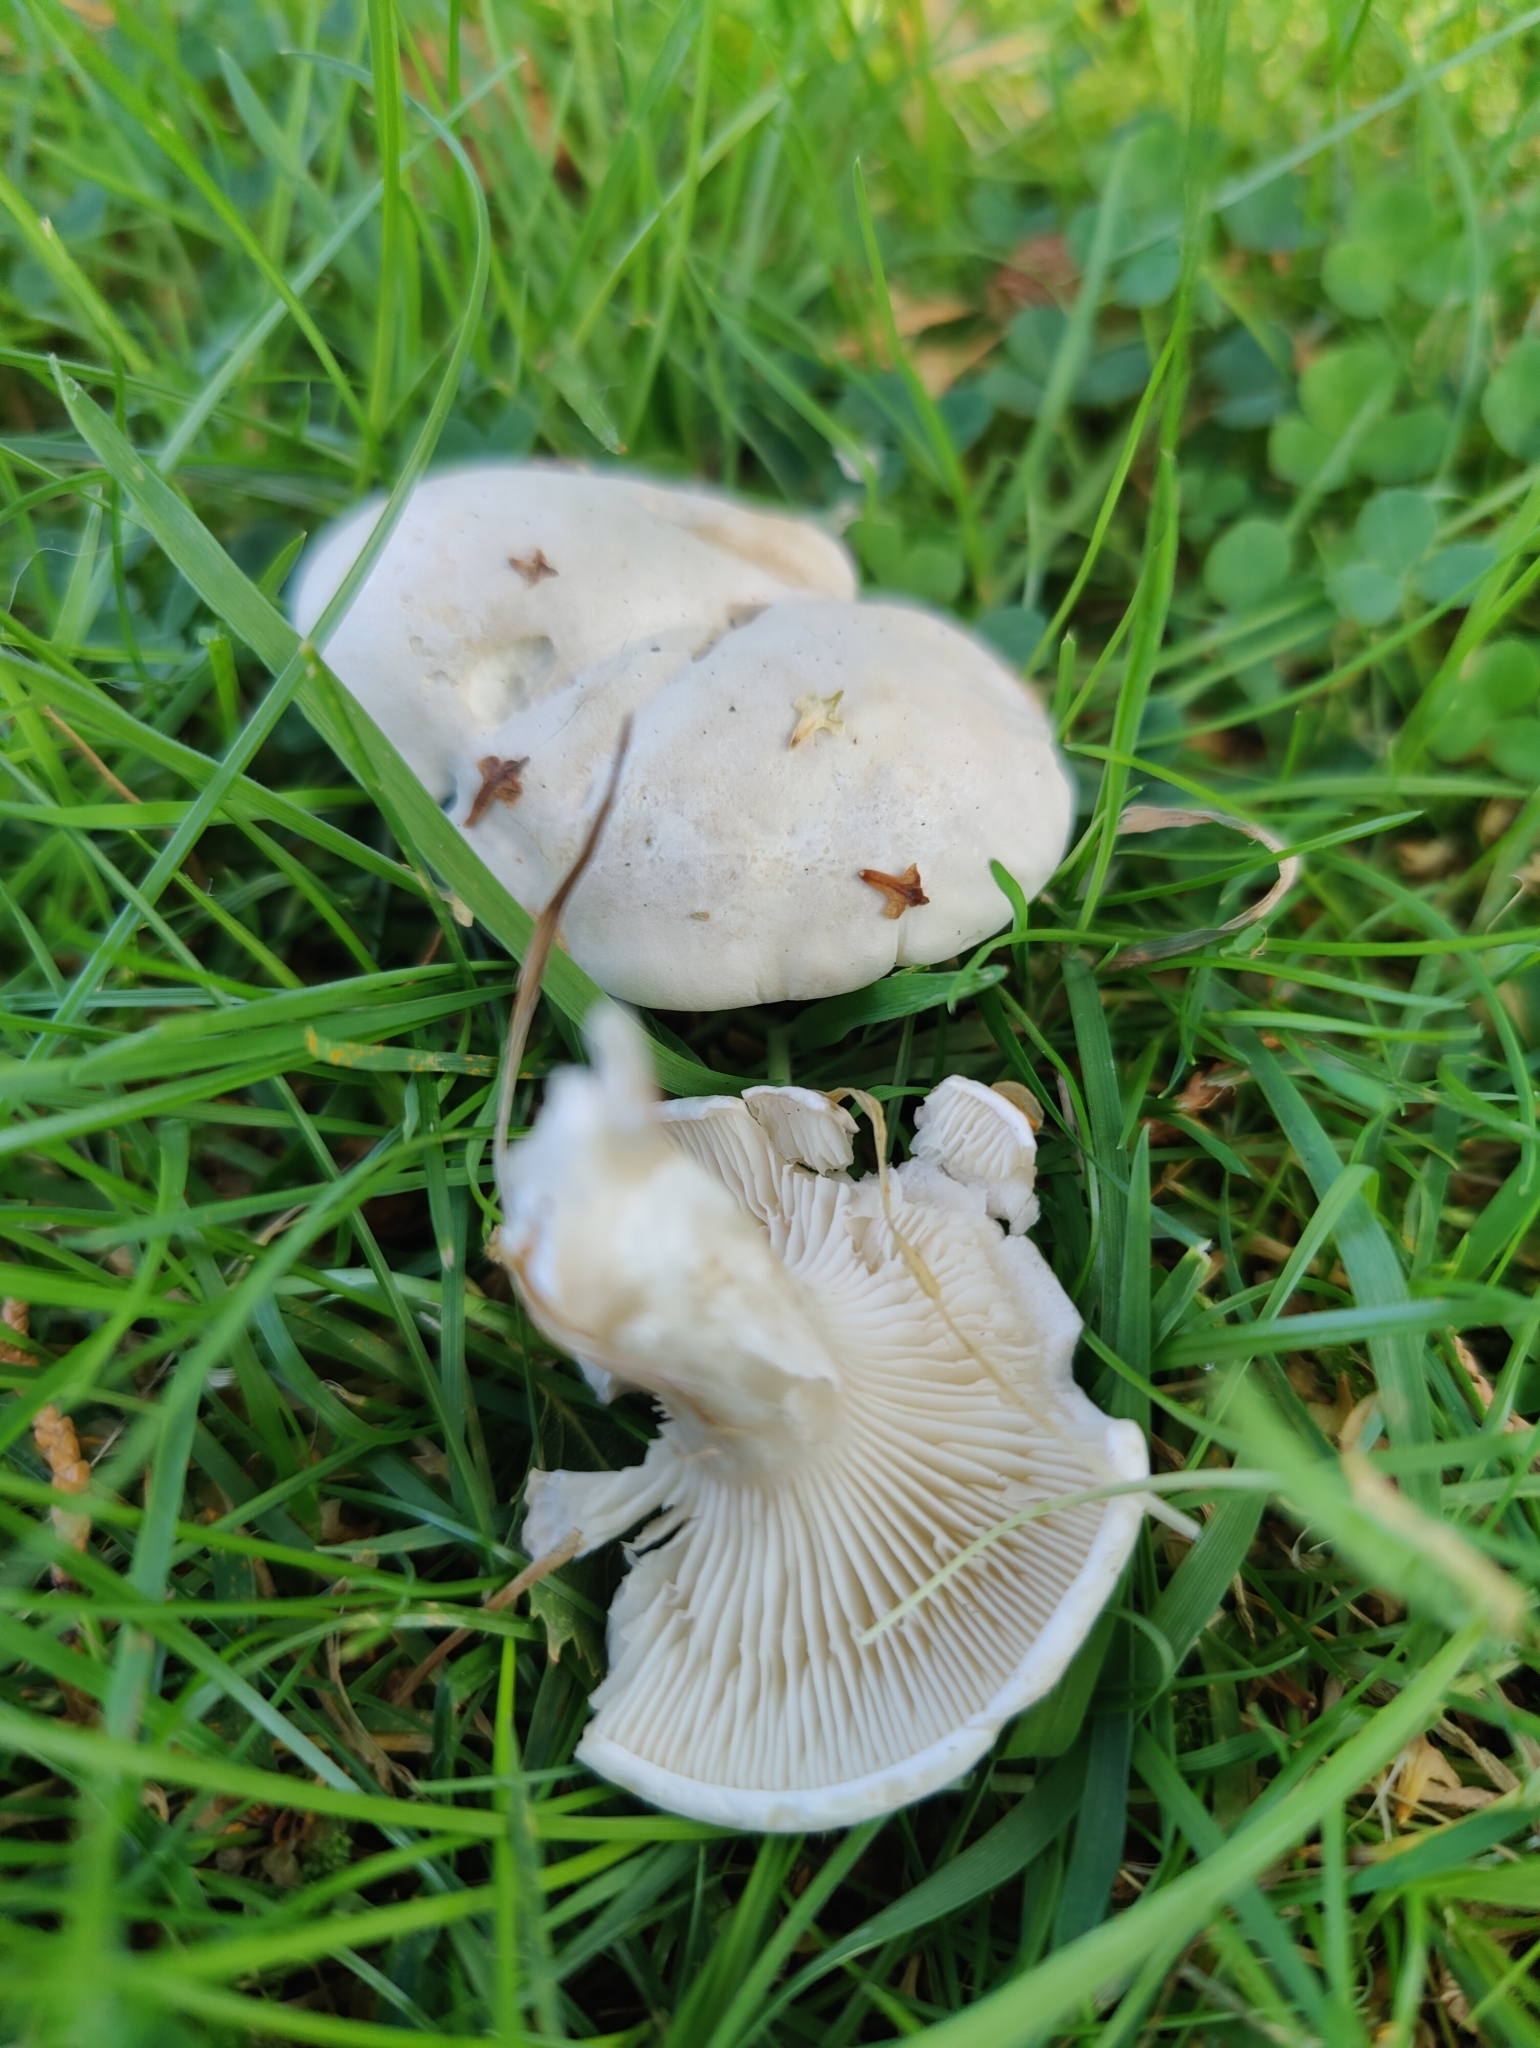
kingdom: Fungi
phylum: Basidiomycota
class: Agaricomycetes
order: Agaricales
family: Entolomataceae
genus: Clitopilus
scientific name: Clitopilus prunulus
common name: The miller
